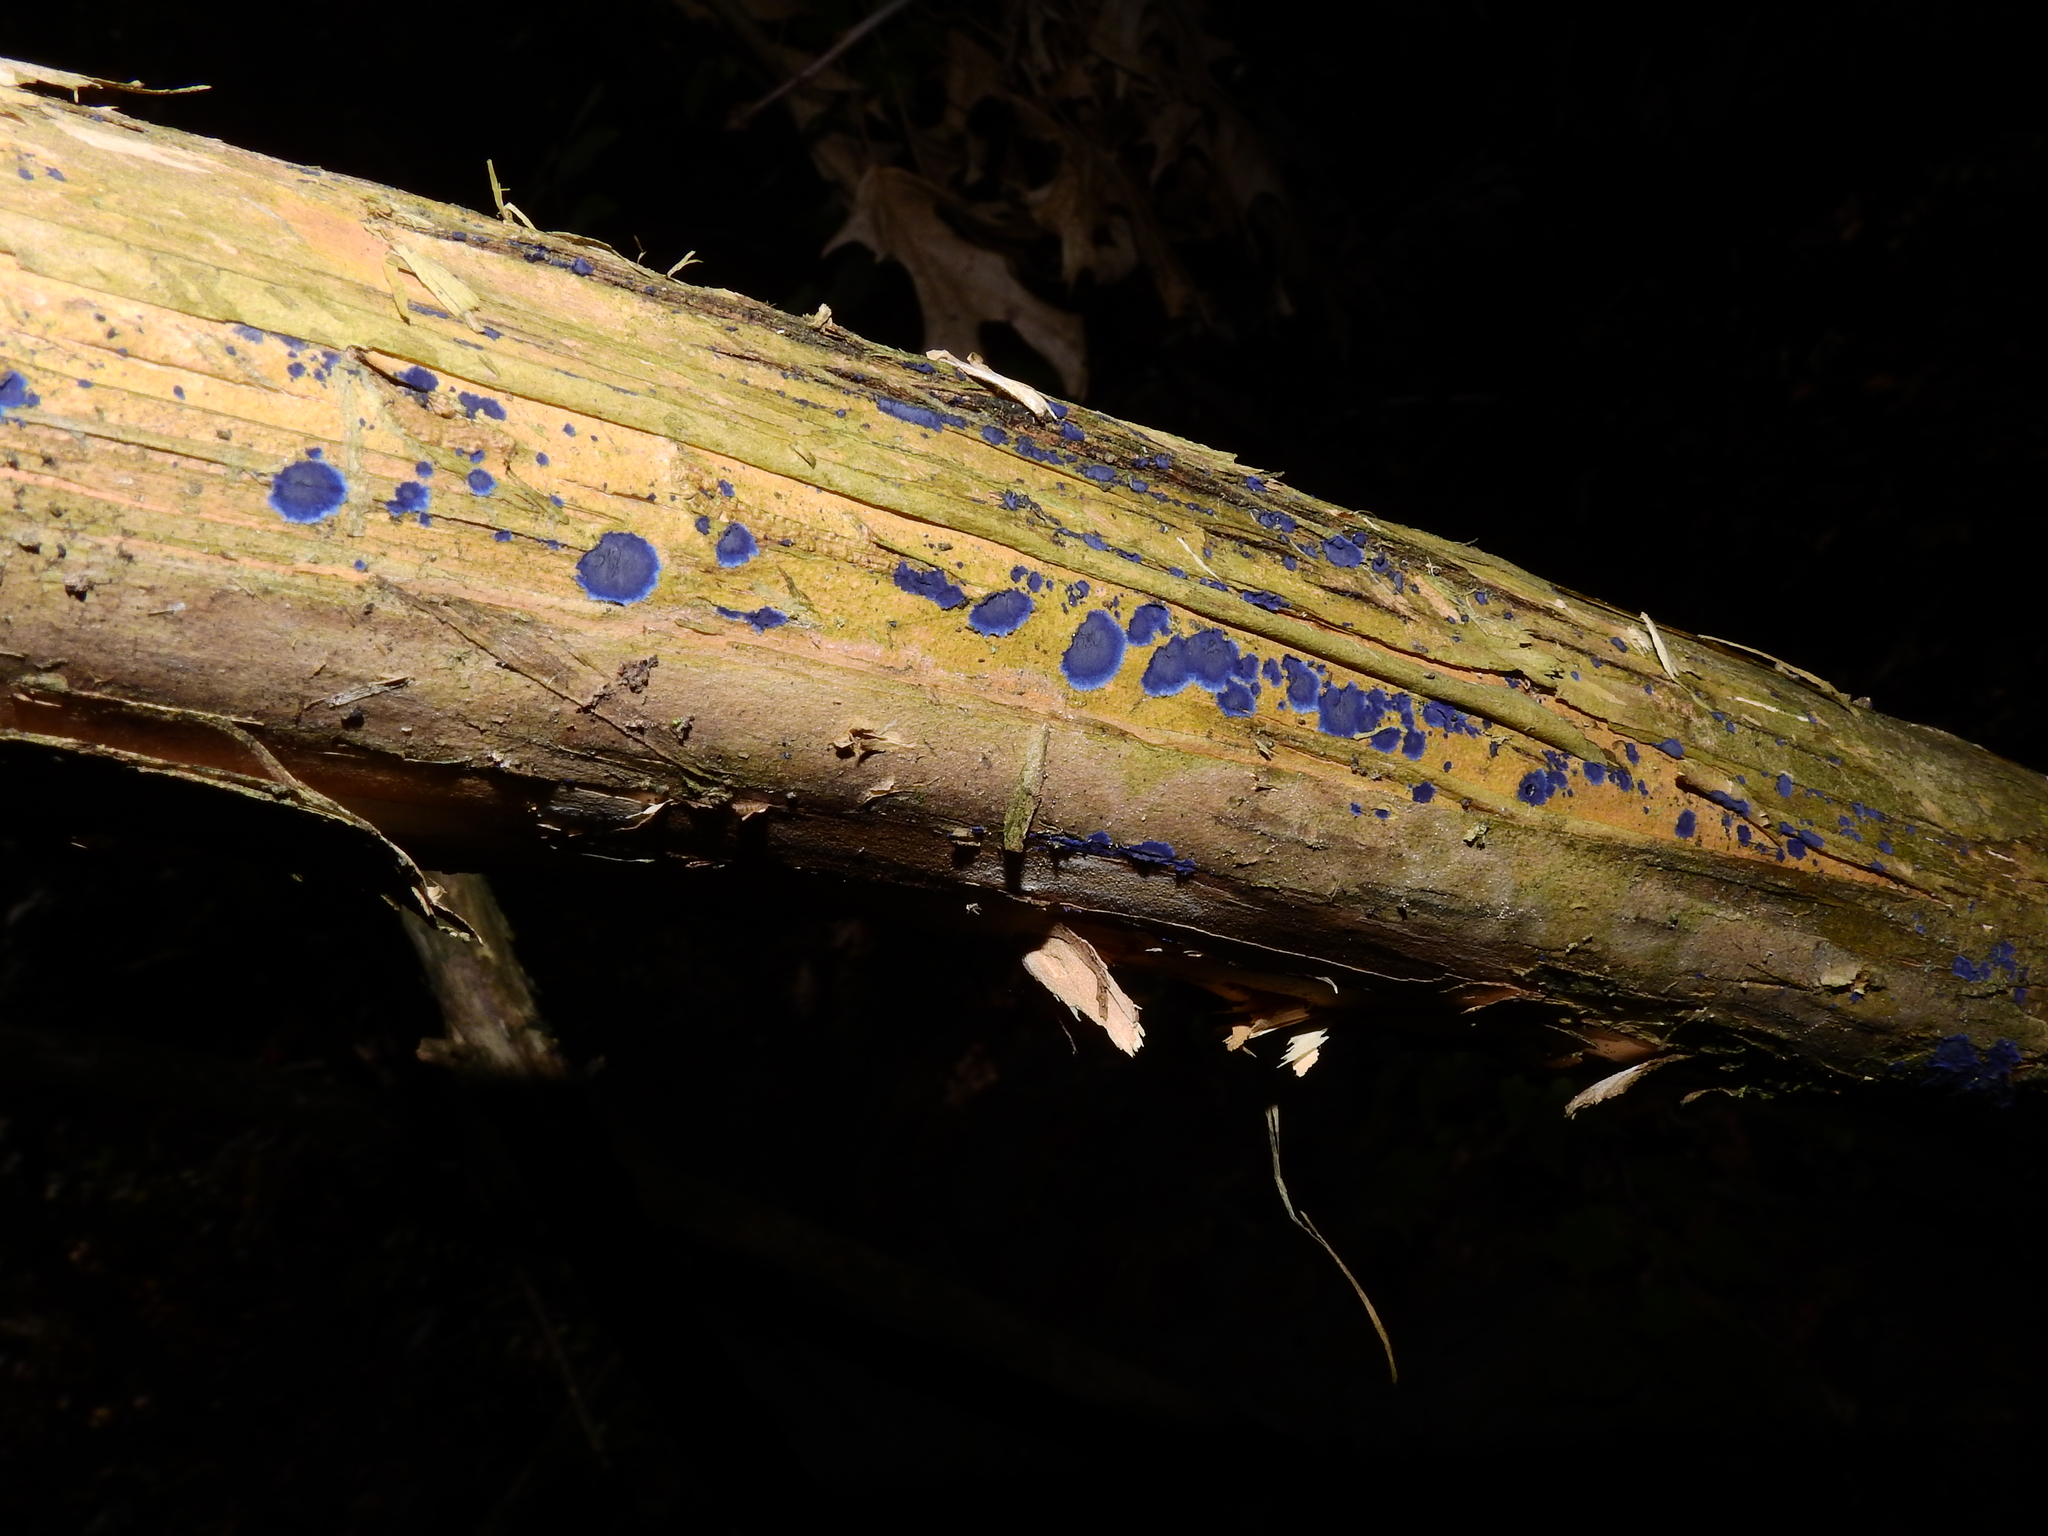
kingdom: Fungi
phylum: Basidiomycota
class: Agaricomycetes
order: Polyporales
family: Phanerochaetaceae
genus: Terana
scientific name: Terana coerulea
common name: Cobalt crust
